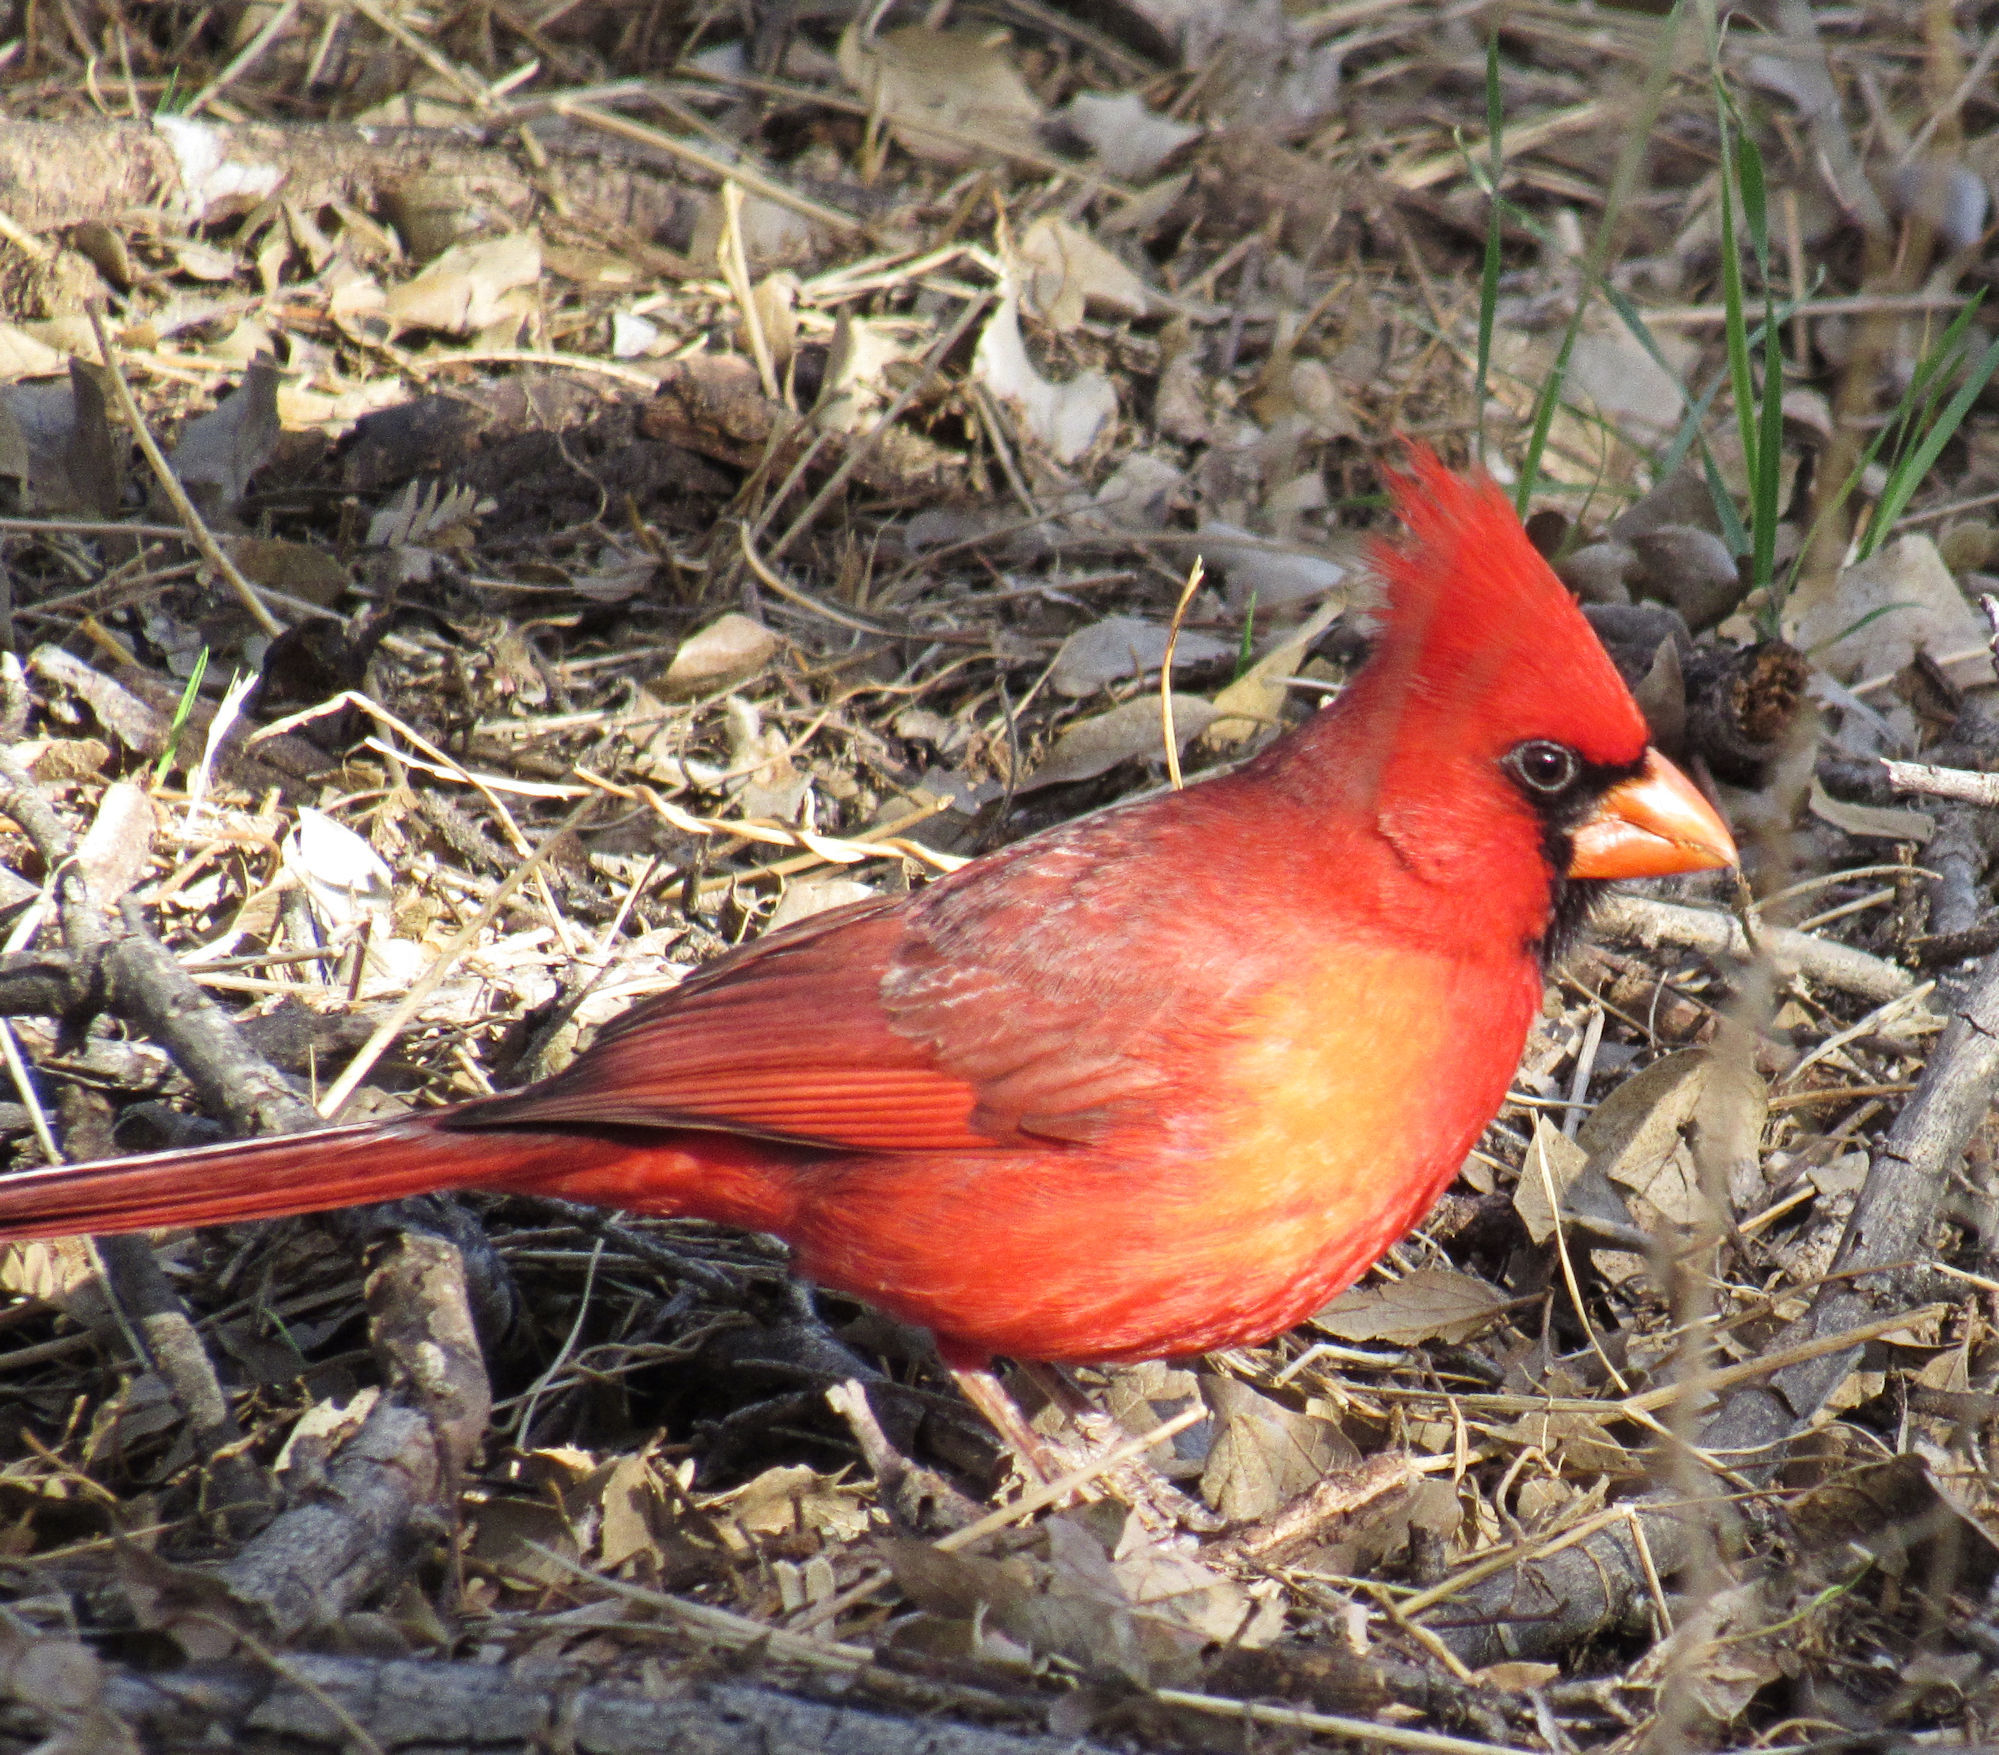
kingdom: Animalia
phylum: Chordata
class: Aves
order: Passeriformes
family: Cardinalidae
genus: Cardinalis
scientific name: Cardinalis cardinalis
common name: Northern cardinal
